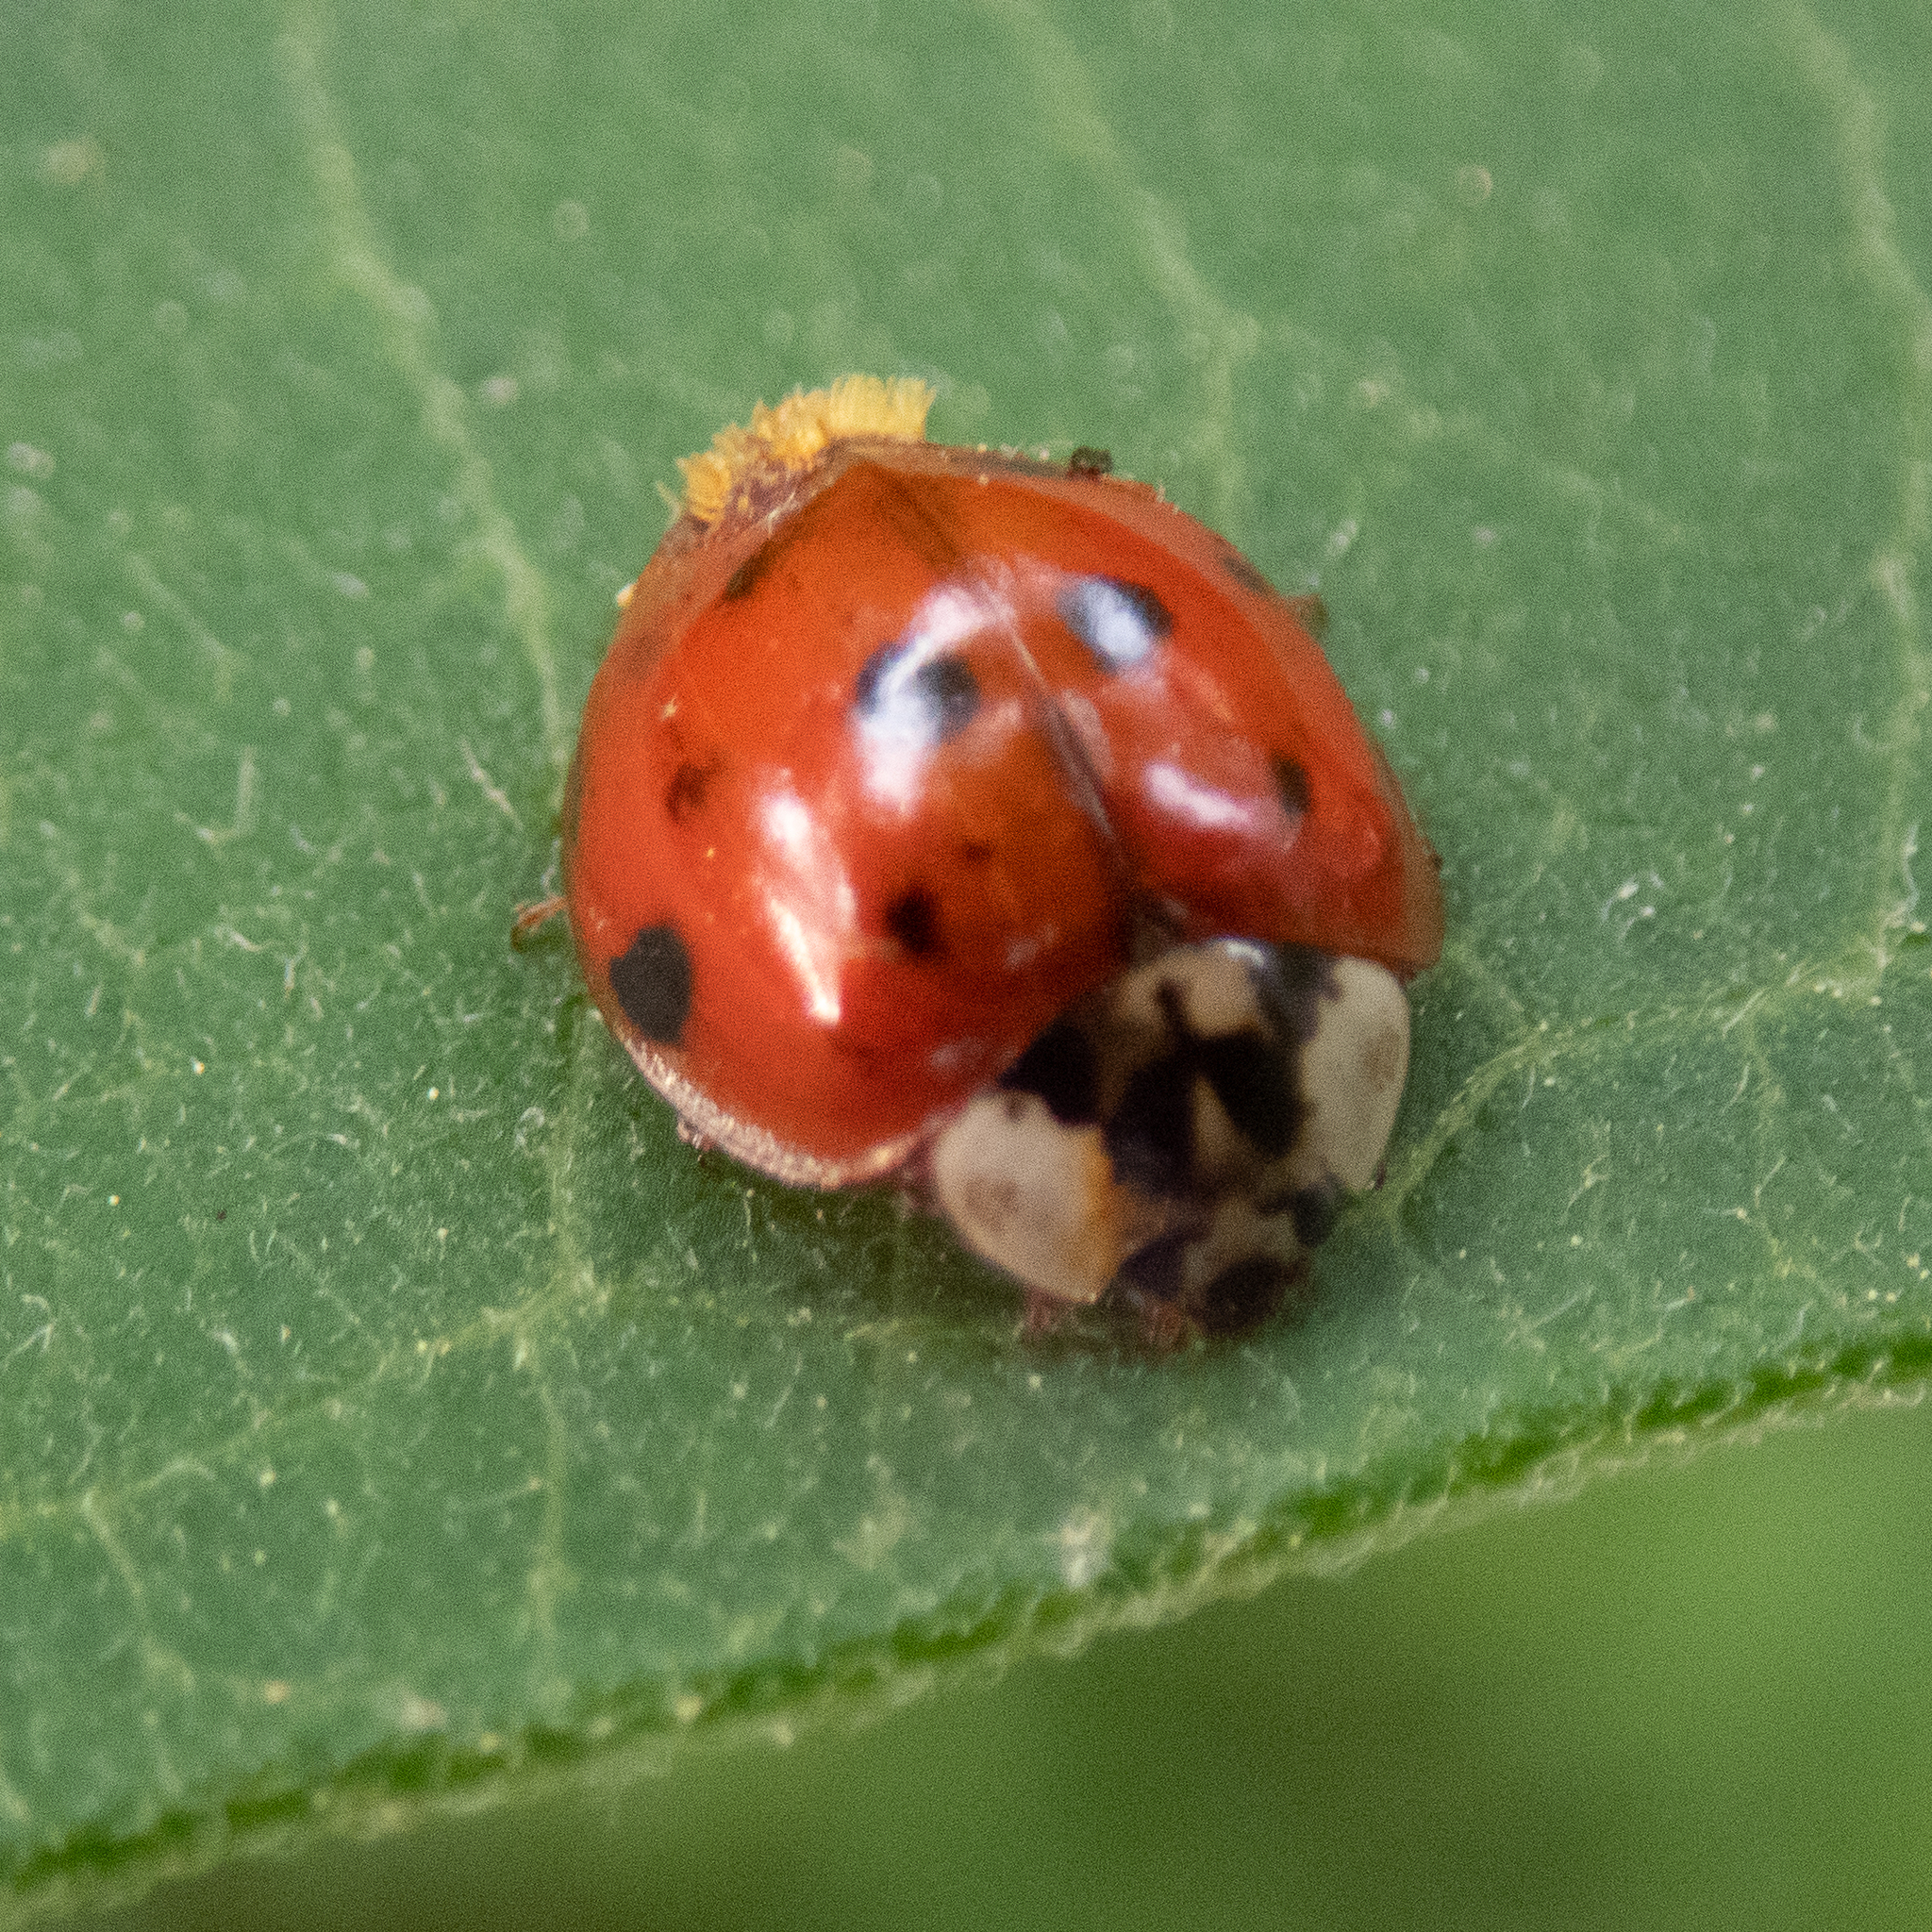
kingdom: Fungi
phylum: Ascomycota
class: Laboulbeniomycetes
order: Laboulbeniales
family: Laboulbeniaceae
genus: Hesperomyces
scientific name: Hesperomyces harmoniae
